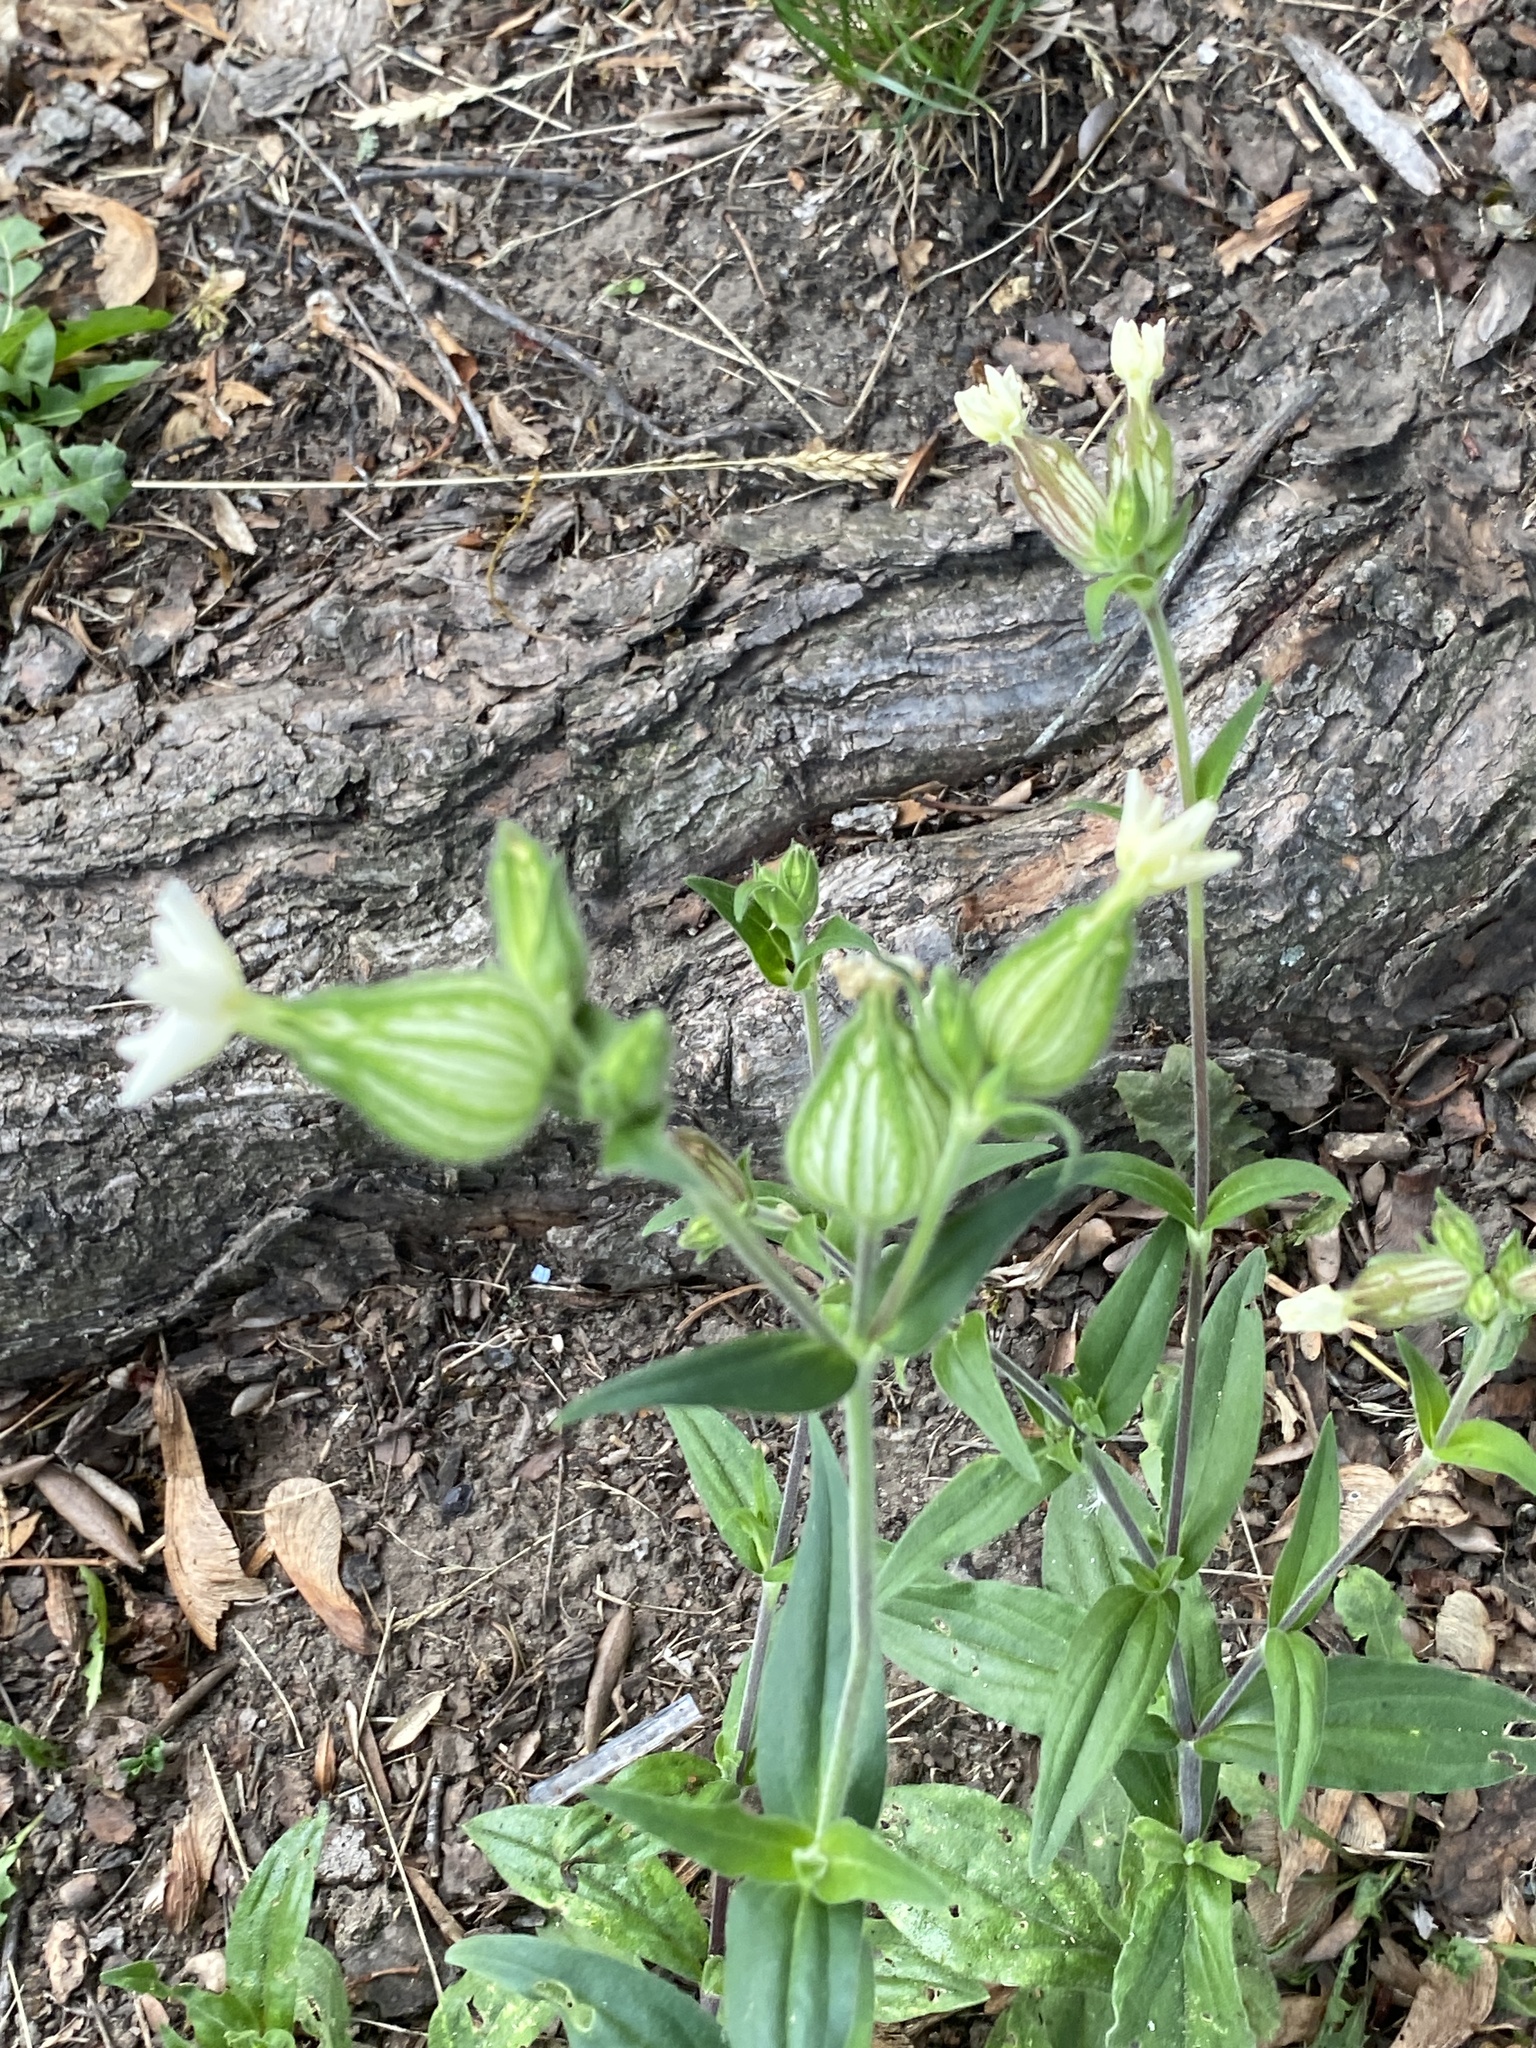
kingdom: Plantae
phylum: Tracheophyta
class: Magnoliopsida
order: Caryophyllales
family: Caryophyllaceae
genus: Silene
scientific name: Silene latifolia
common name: White campion
